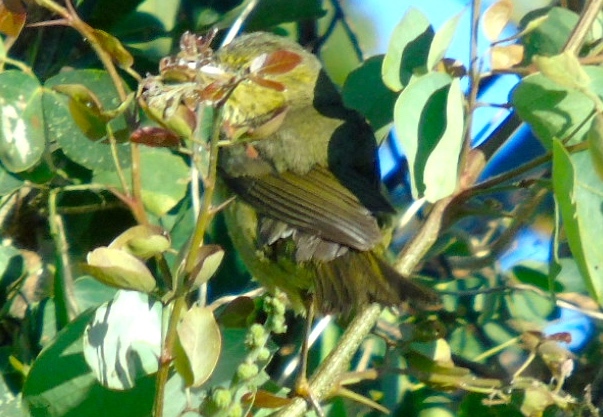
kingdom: Animalia
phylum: Chordata
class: Aves
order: Passeriformes
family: Parulidae
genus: Leiothlypis
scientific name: Leiothlypis celata
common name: Orange-crowned warbler
